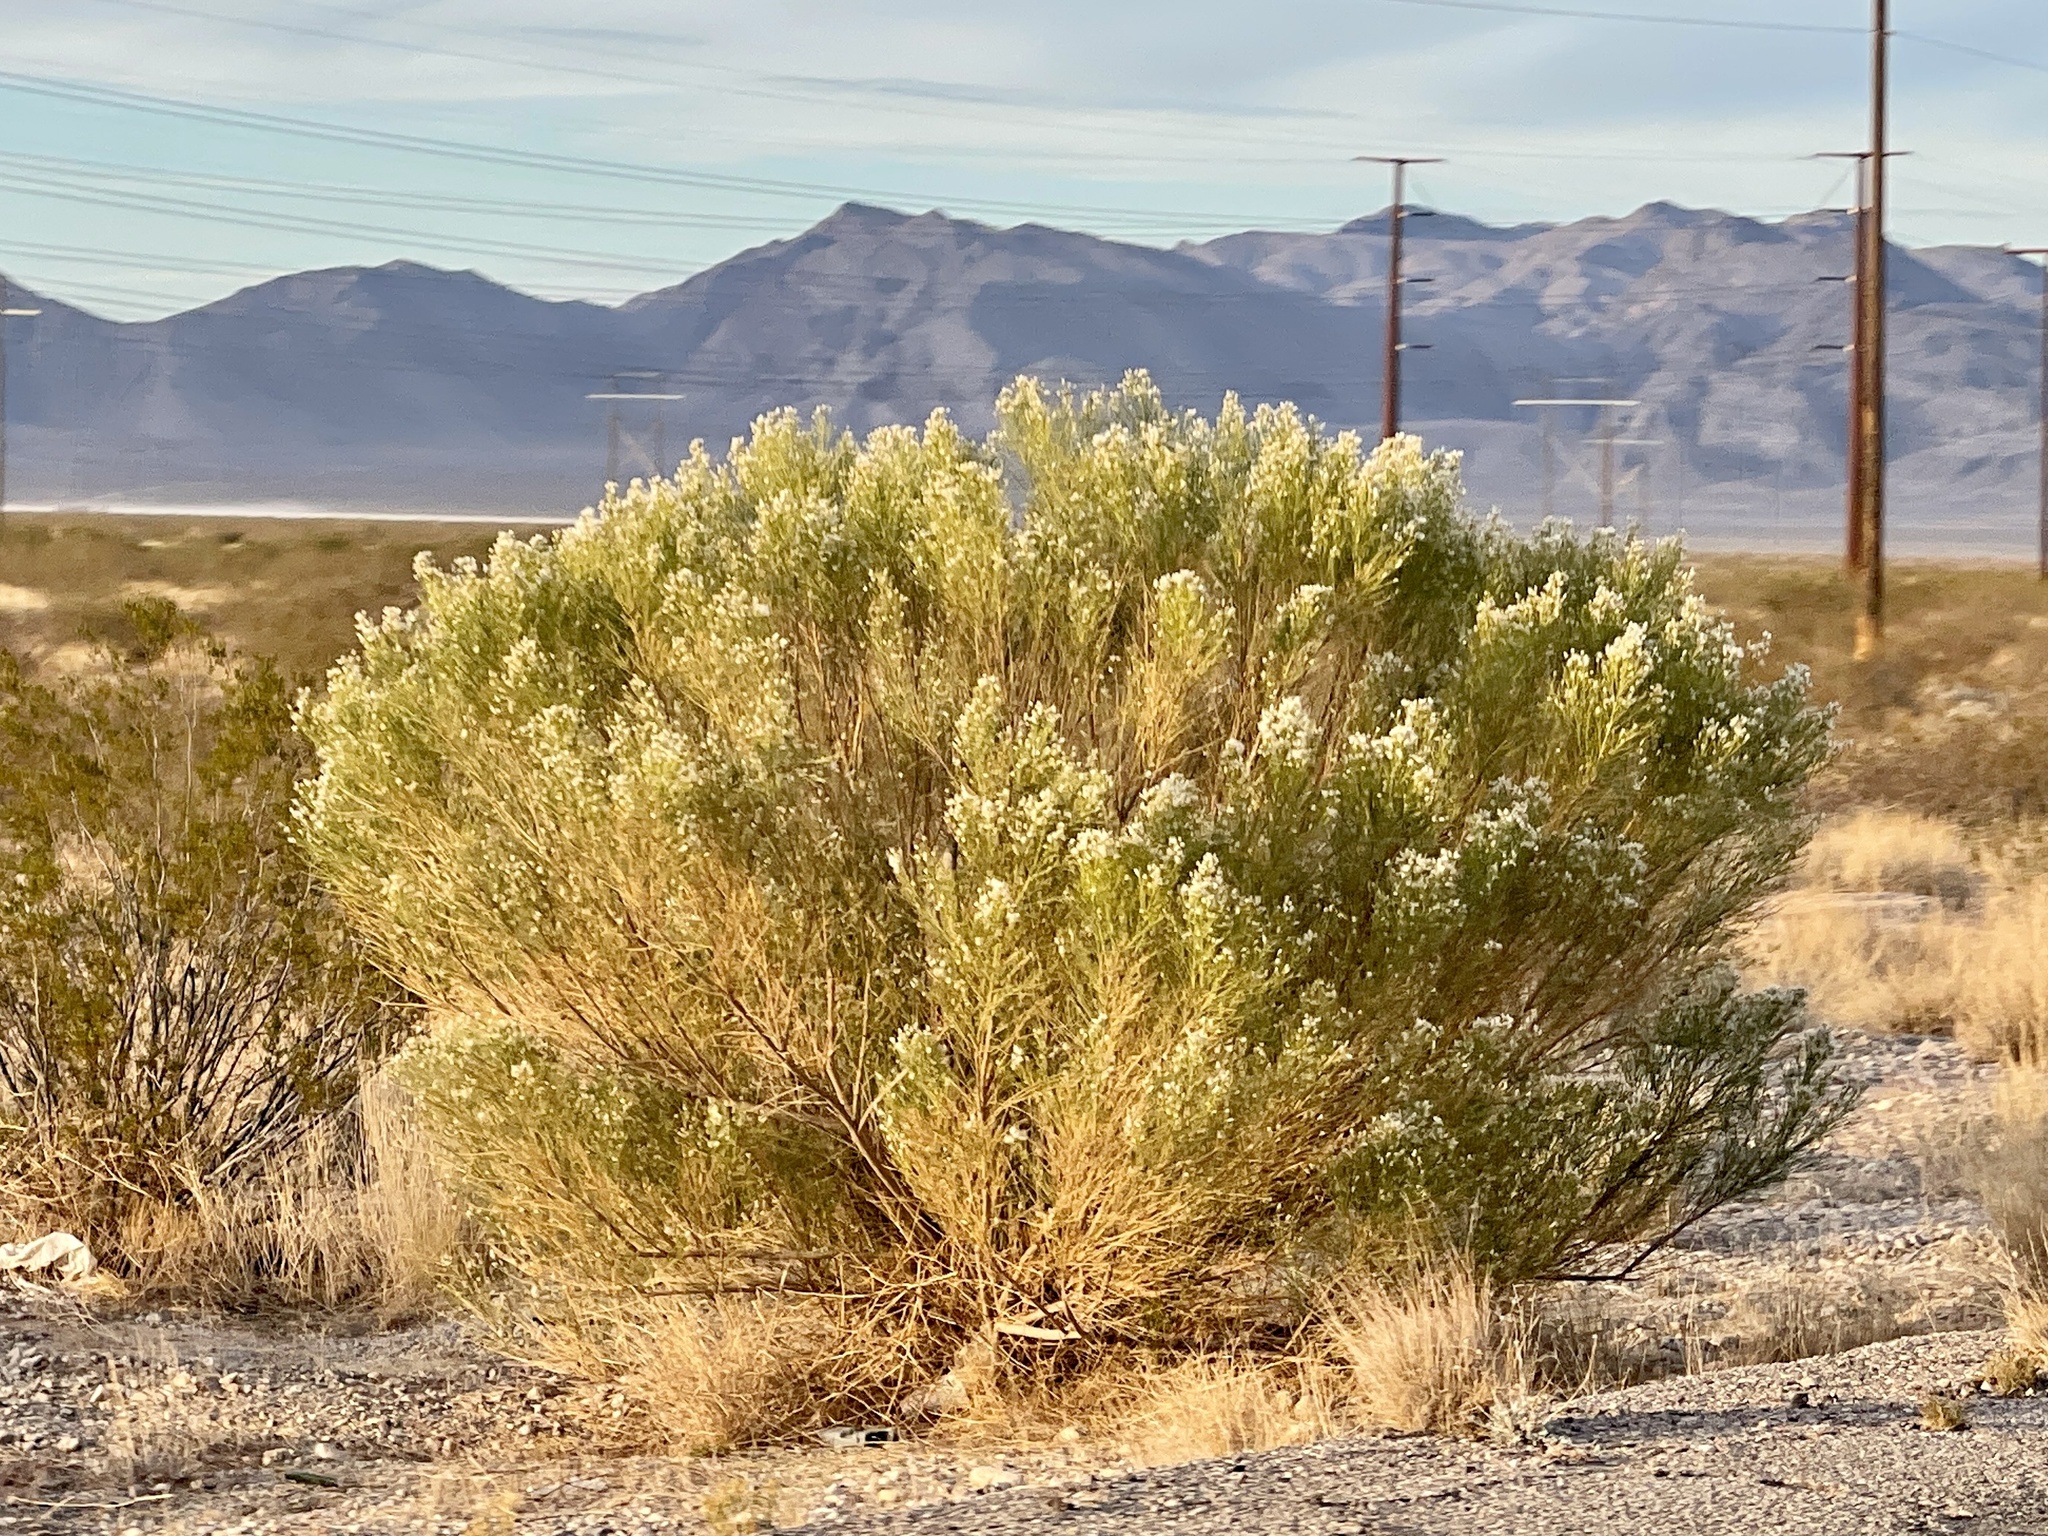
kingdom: Plantae
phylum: Tracheophyta
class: Magnoliopsida
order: Asterales
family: Asteraceae
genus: Baccharis
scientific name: Baccharis sarothroides
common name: Desert-broom
